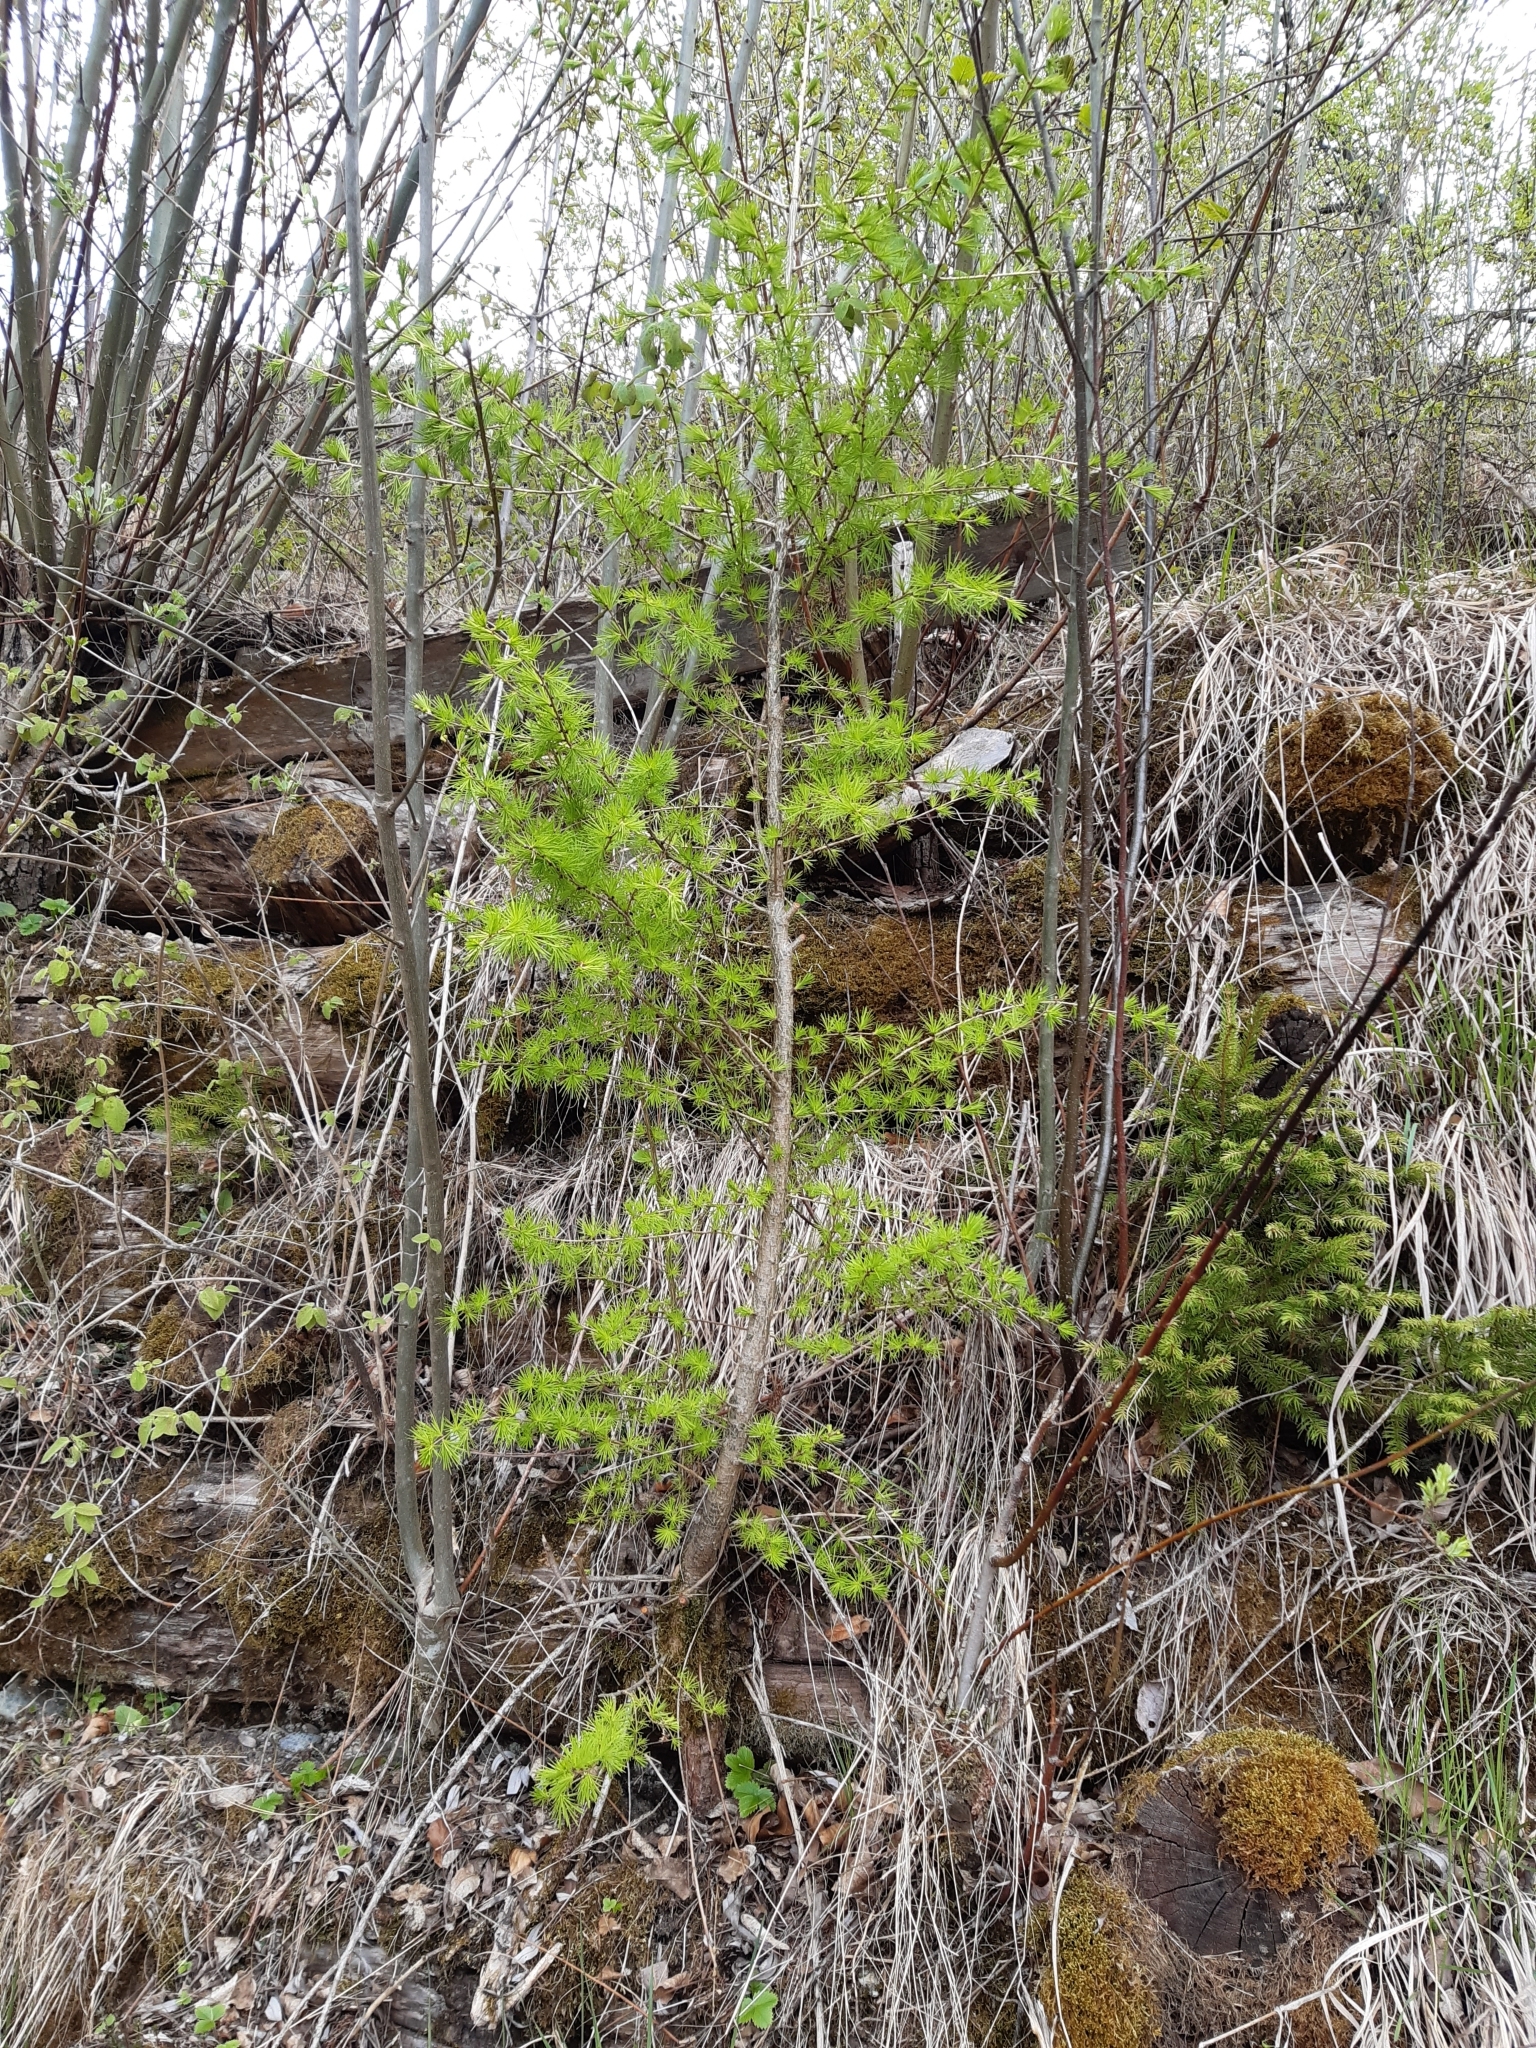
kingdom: Plantae
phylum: Tracheophyta
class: Pinopsida
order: Pinales
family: Pinaceae
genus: Larix
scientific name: Larix decidua
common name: European larch
